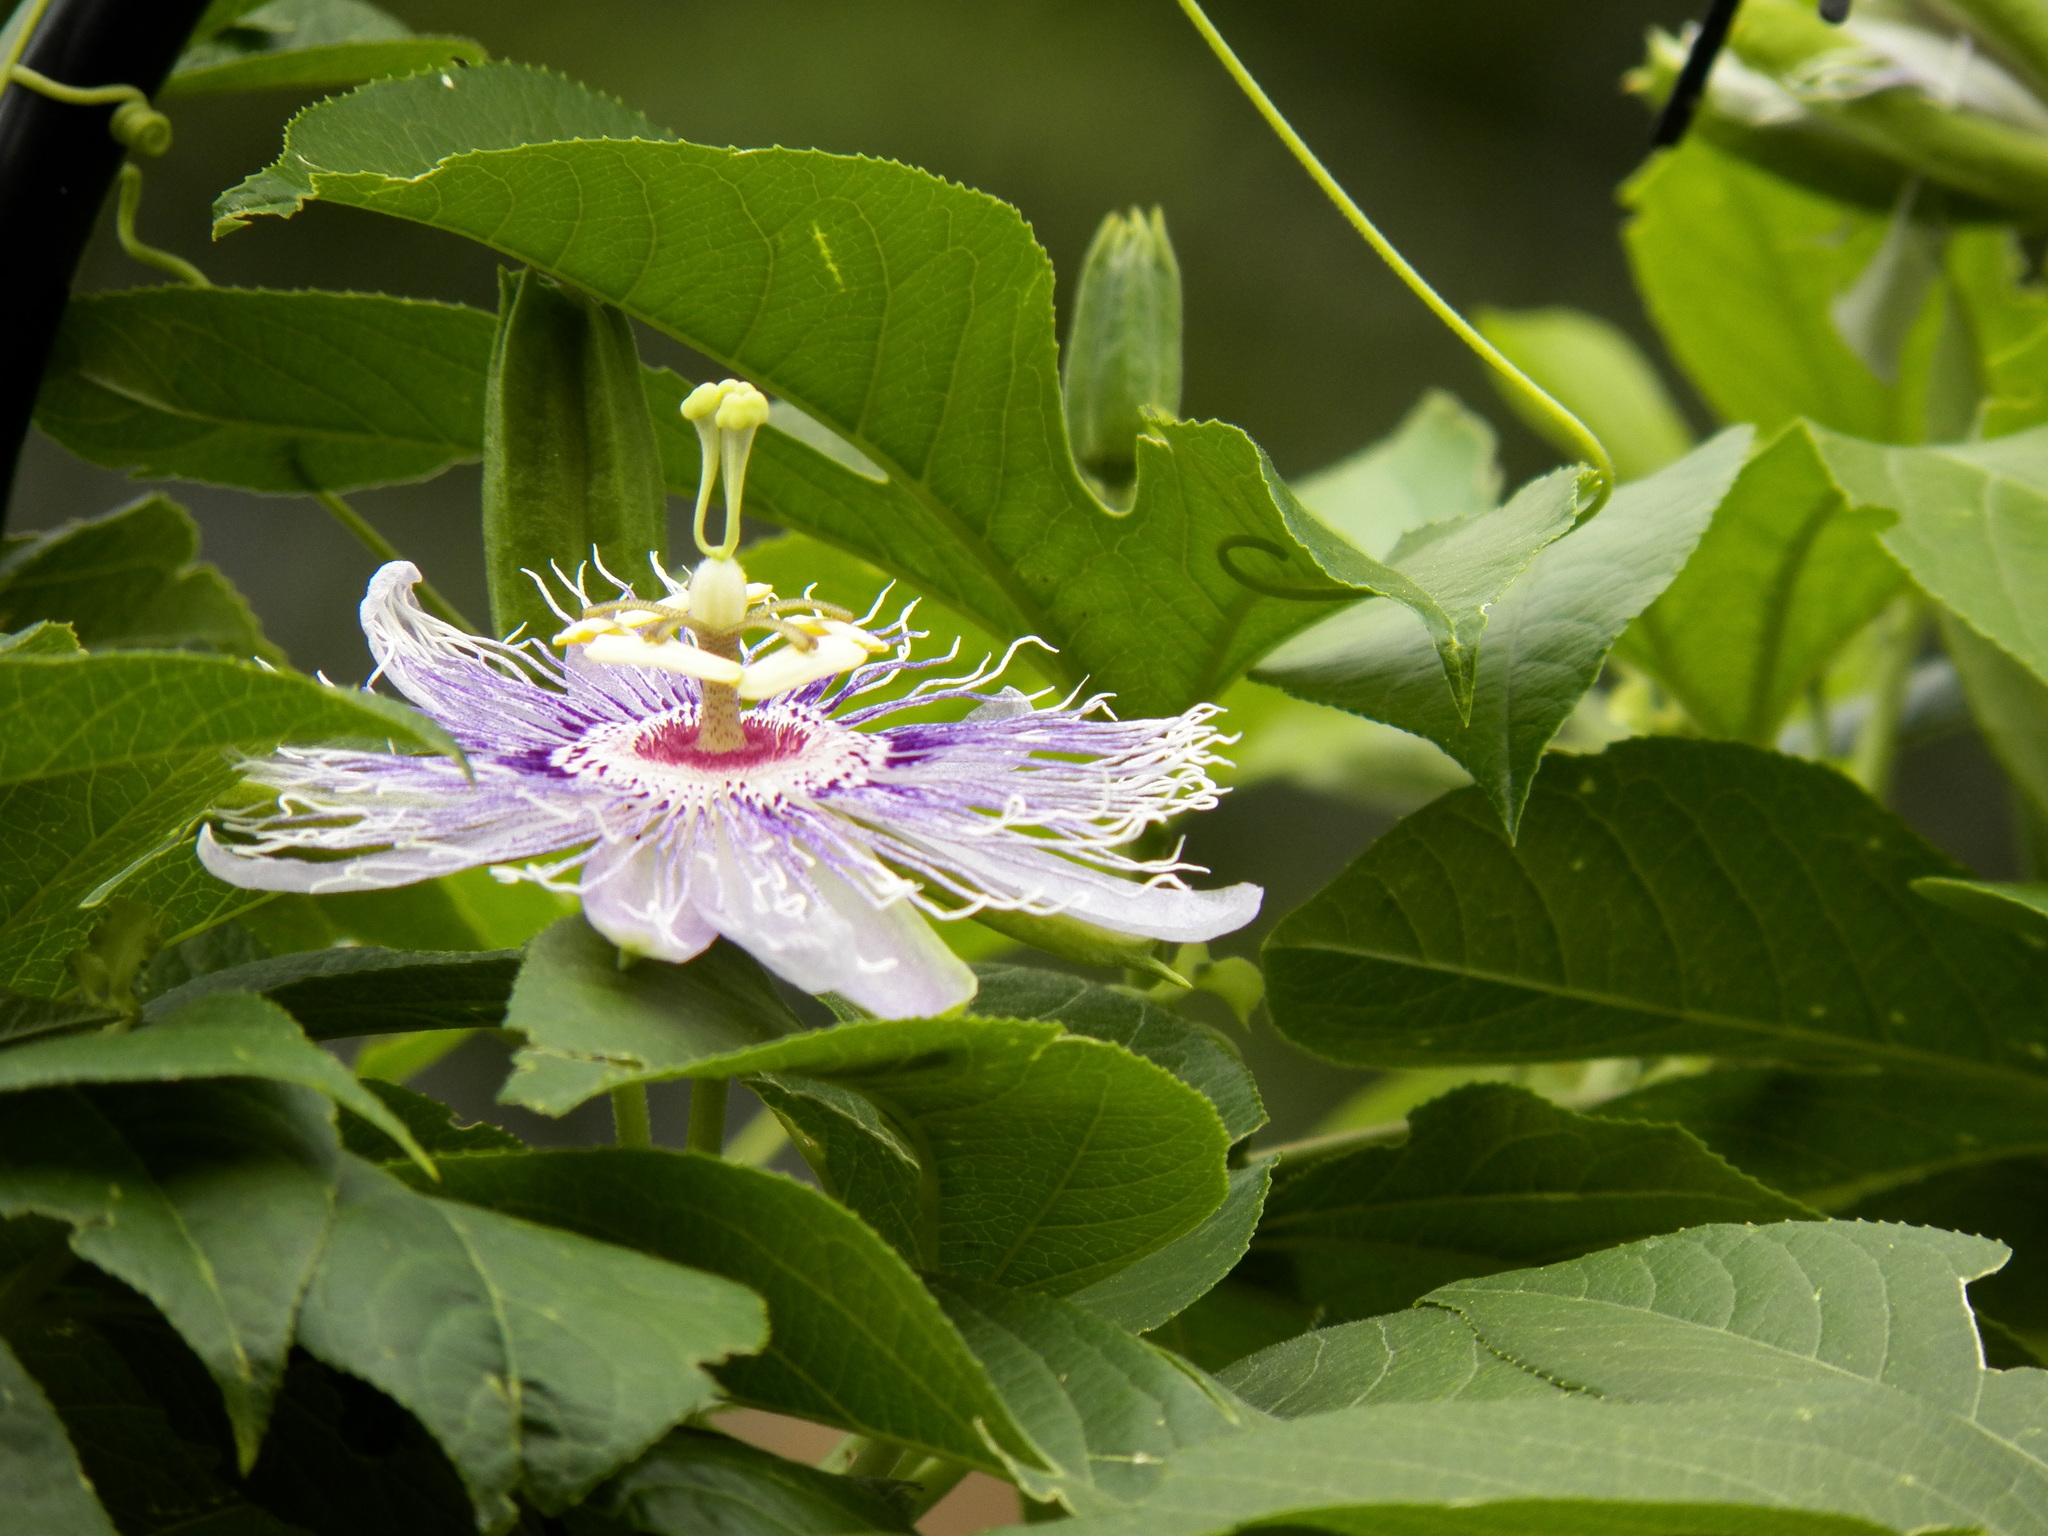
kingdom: Plantae
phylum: Tracheophyta
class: Magnoliopsida
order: Malpighiales
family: Passifloraceae
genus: Passiflora
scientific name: Passiflora incarnata
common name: Apricot-vine
